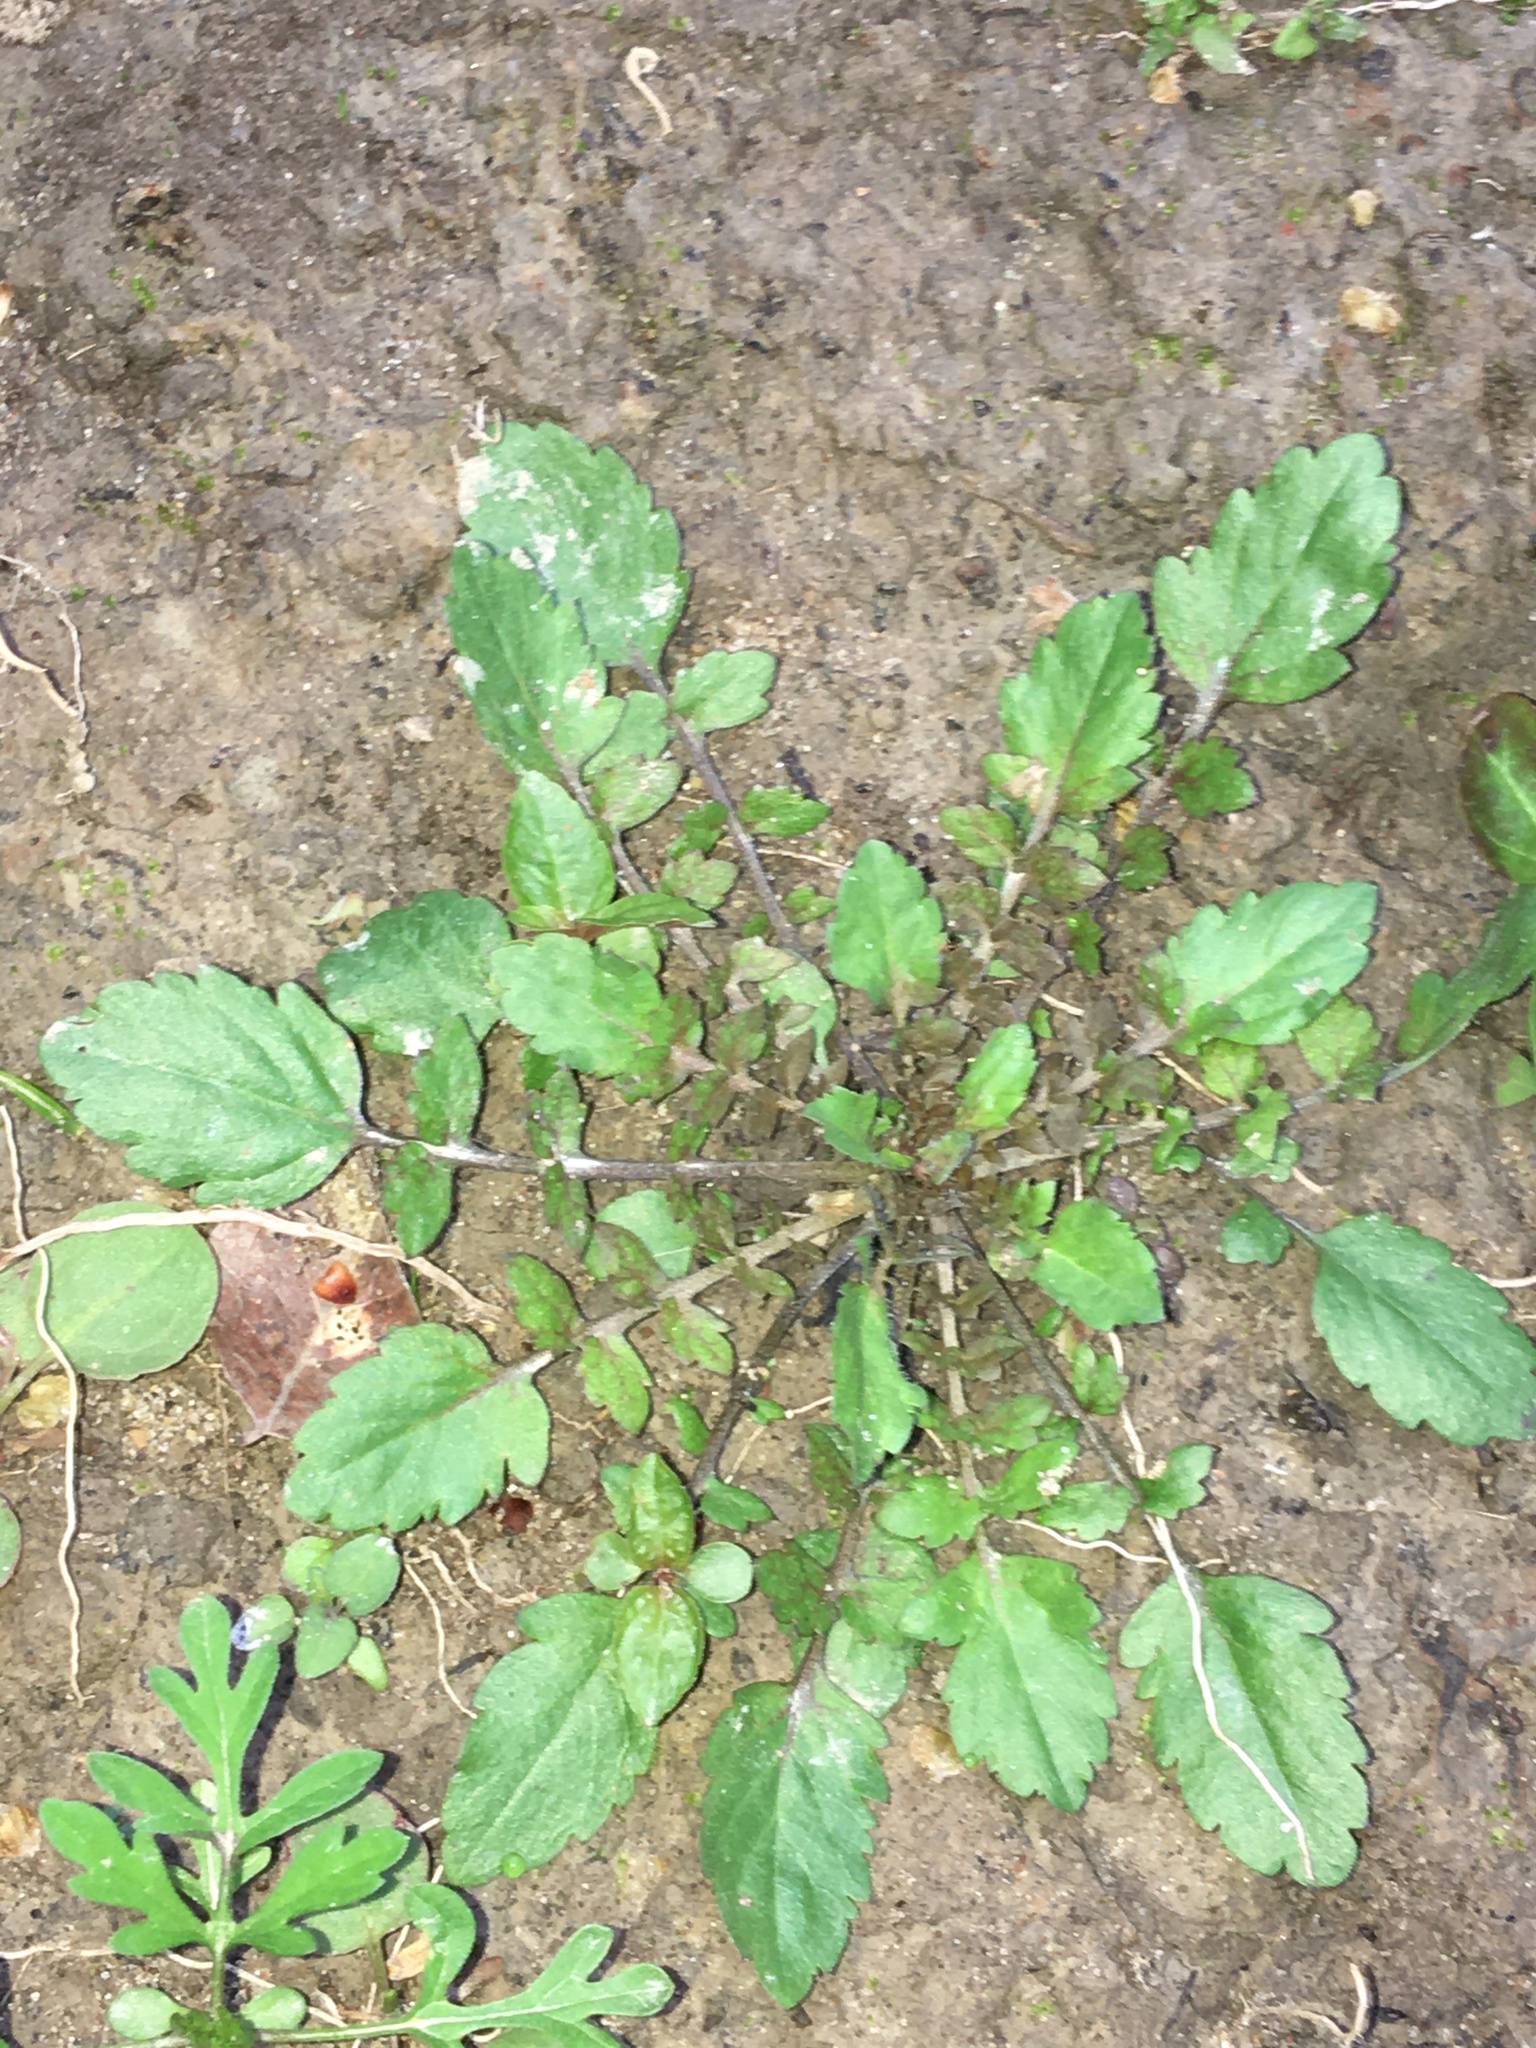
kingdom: Plantae
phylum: Tracheophyta
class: Magnoliopsida
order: Brassicales
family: Brassicaceae
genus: Rorippa
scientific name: Rorippa palustris
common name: Marsh yellow-cress
